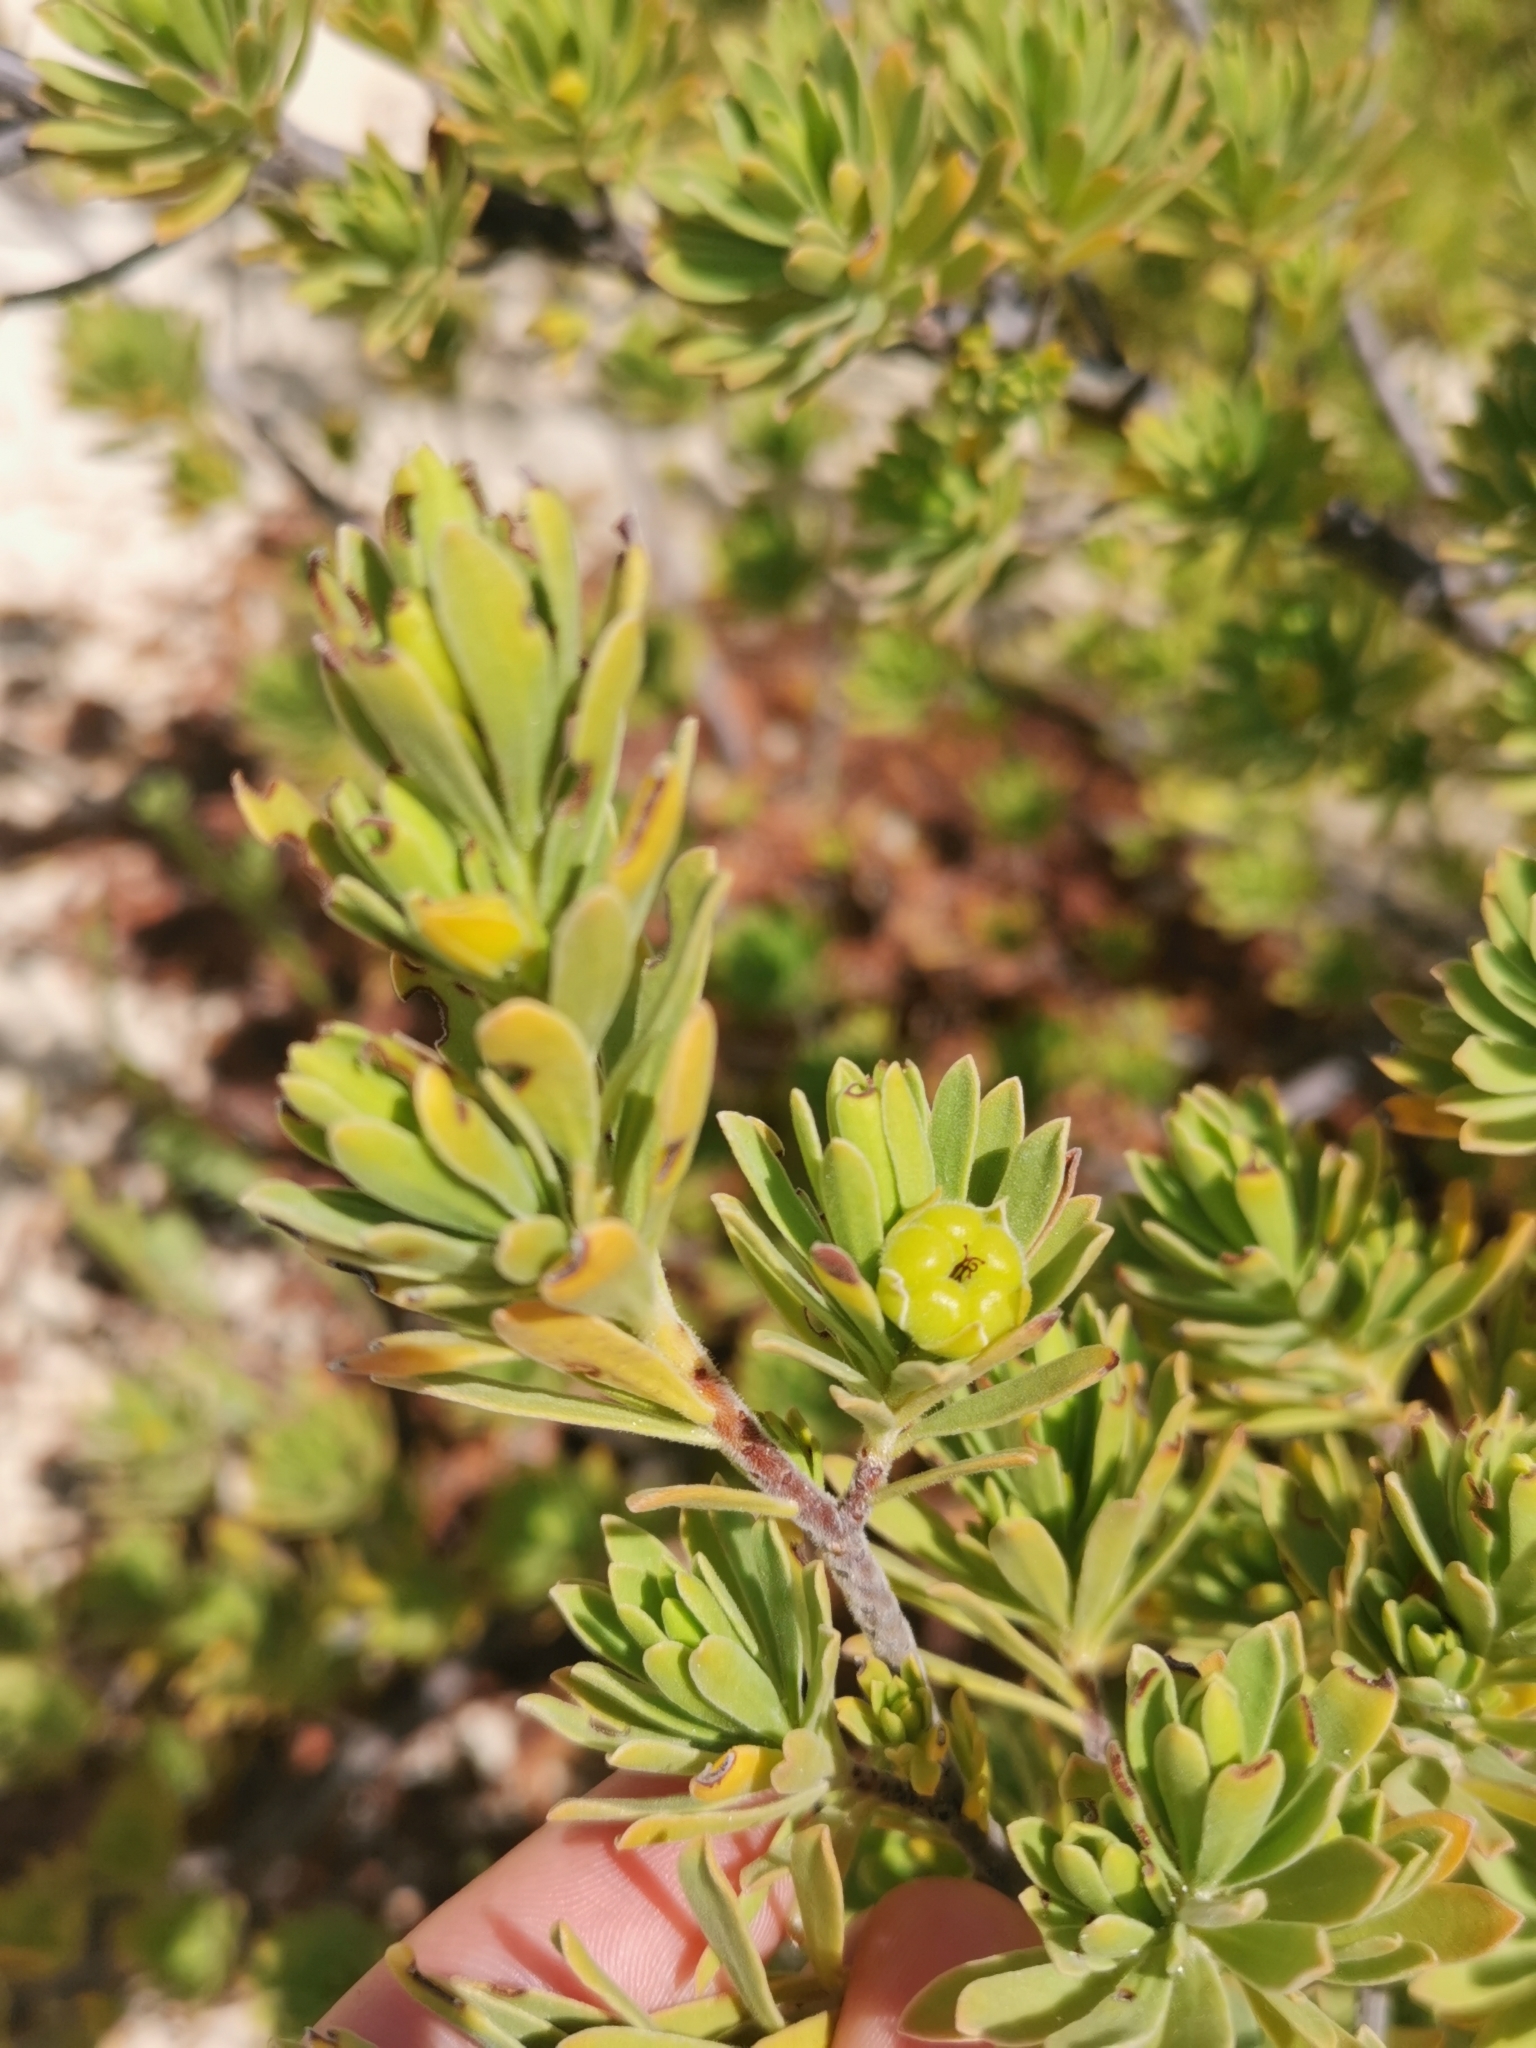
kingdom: Plantae
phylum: Tracheophyta
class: Magnoliopsida
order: Fabales
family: Surianaceae
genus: Suriana
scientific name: Suriana maritima
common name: Bay-cedar
